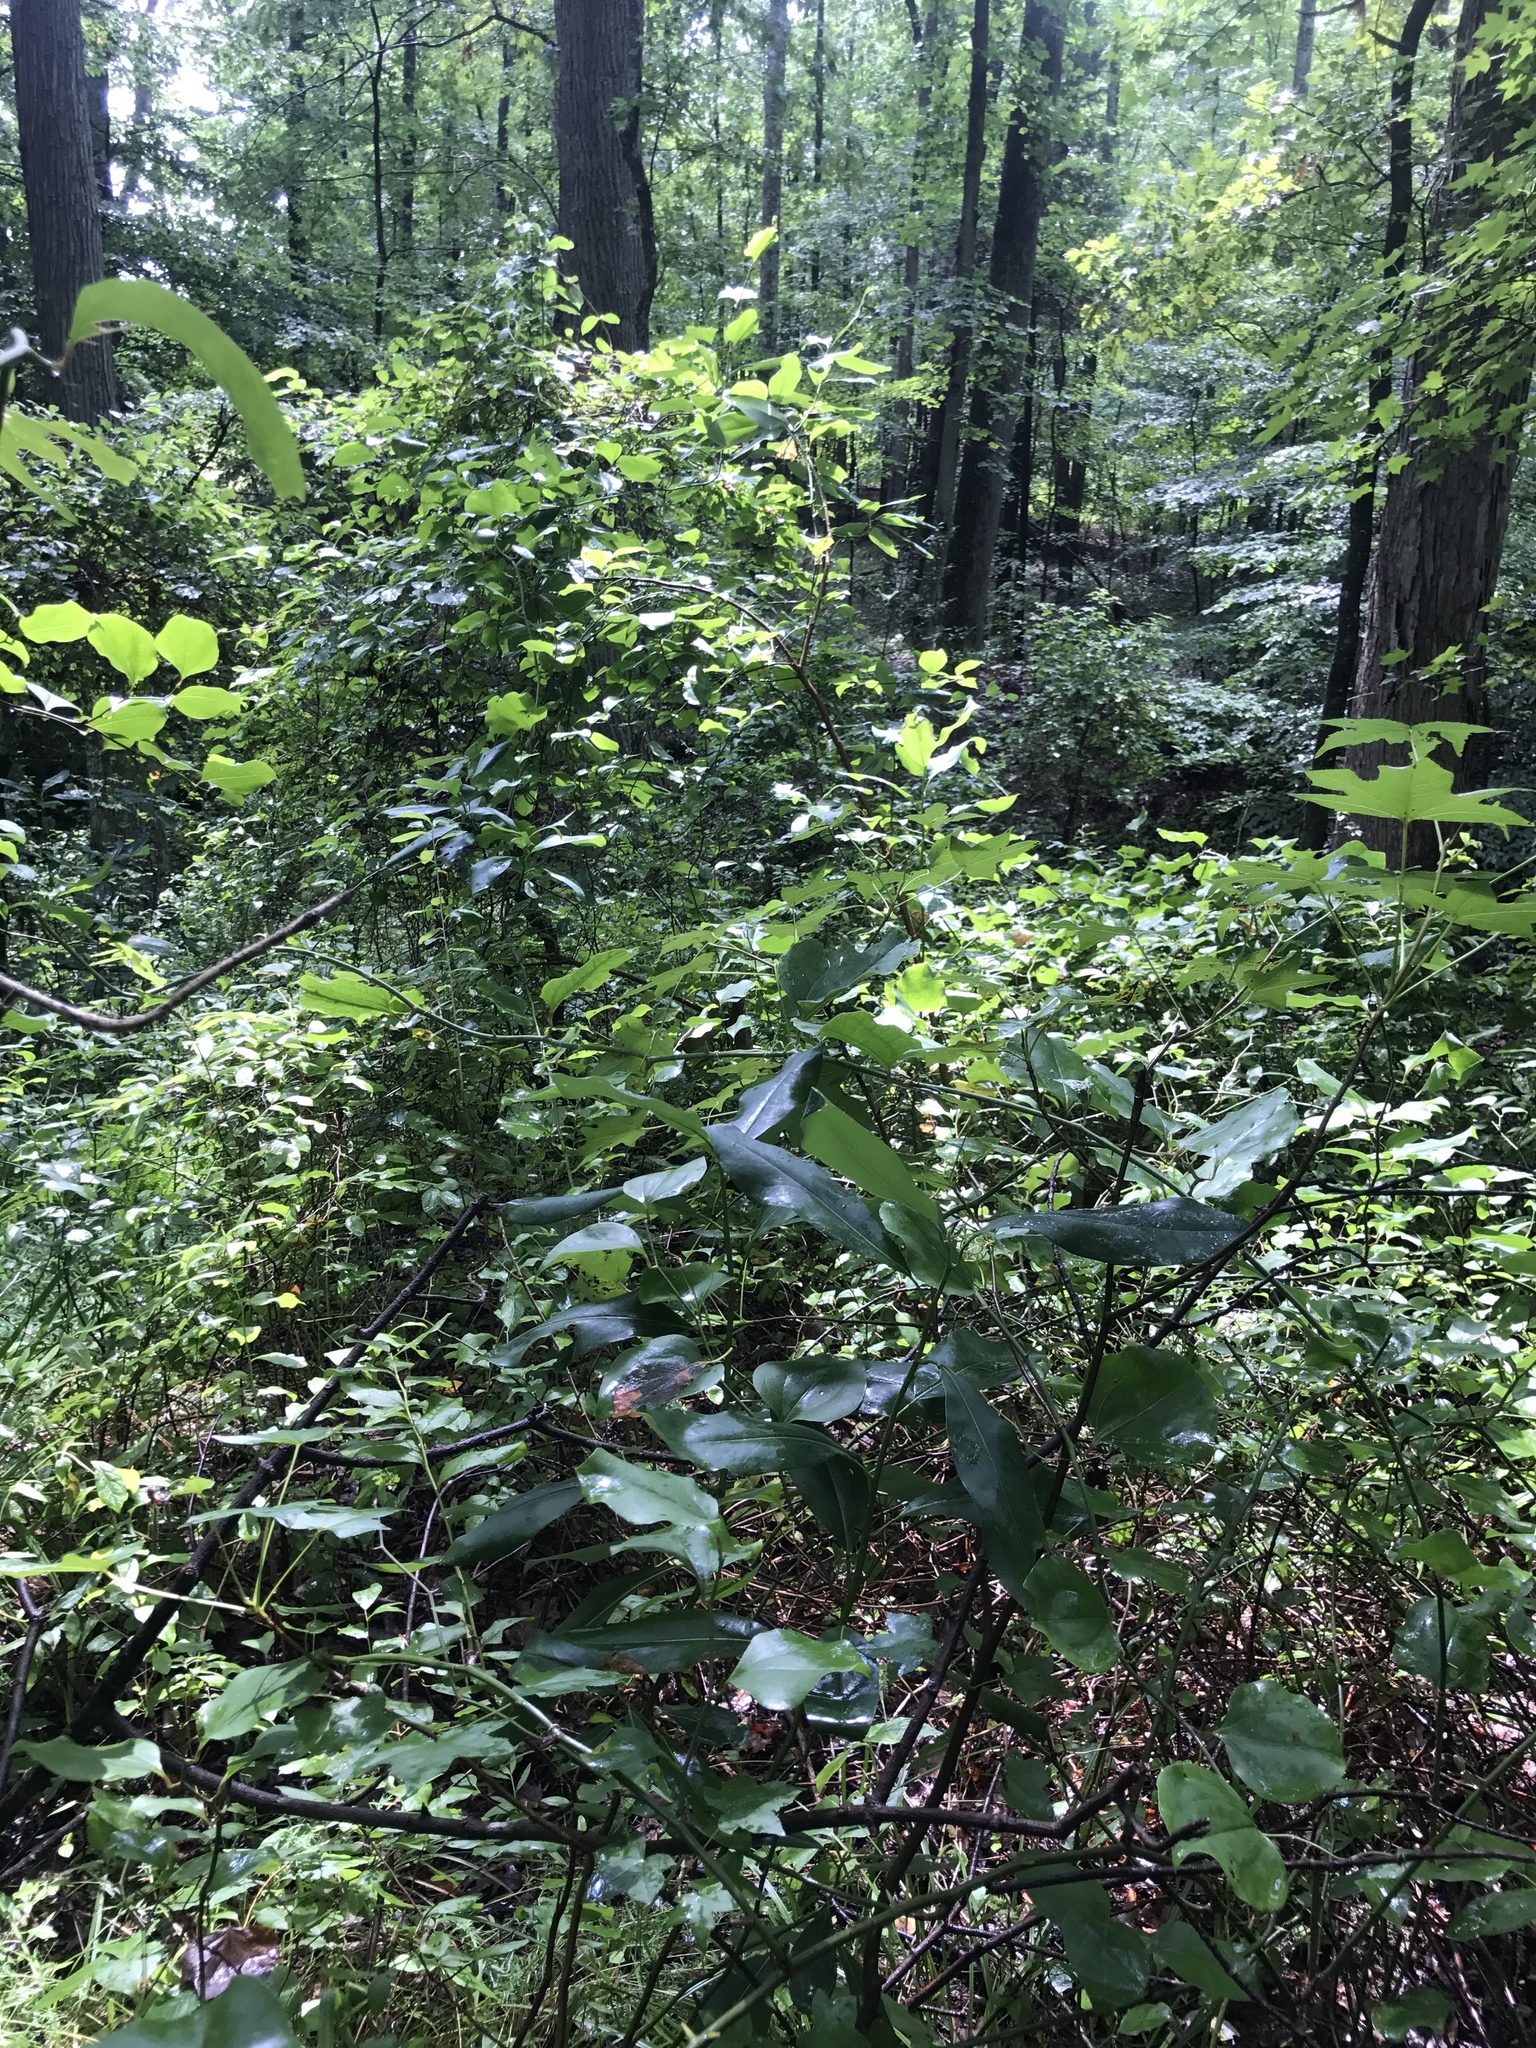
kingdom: Plantae
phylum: Tracheophyta
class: Magnoliopsida
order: Magnoliales
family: Magnoliaceae
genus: Magnolia
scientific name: Magnolia virginiana
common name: Swamp bay
